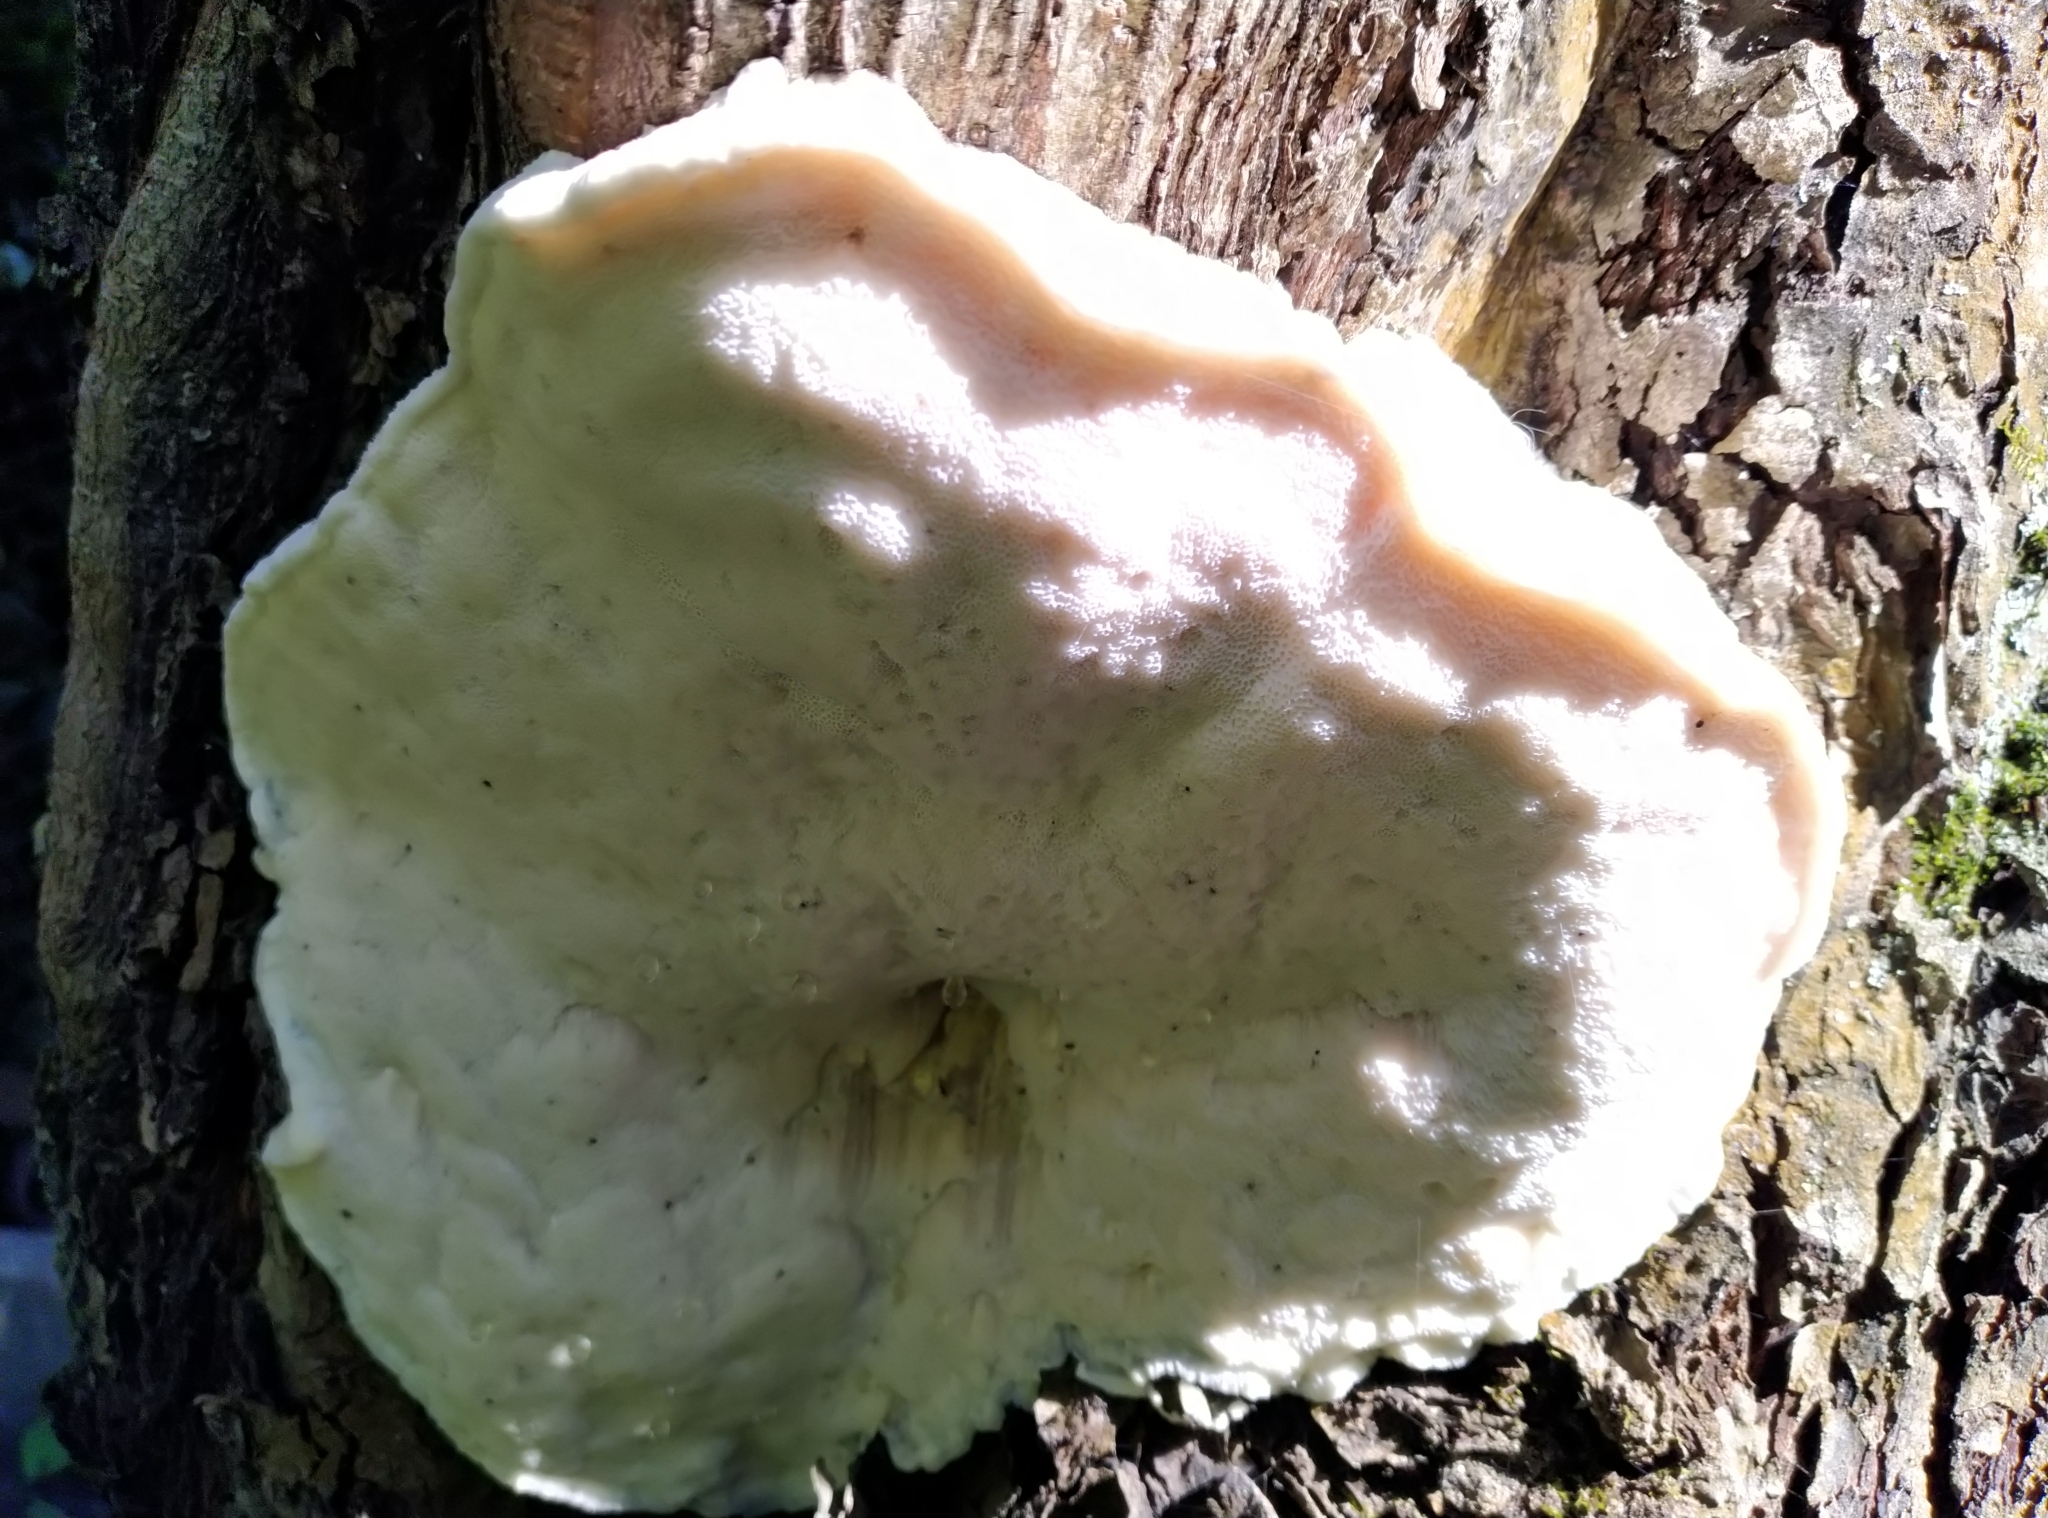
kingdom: Fungi
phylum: Basidiomycota
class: Agaricomycetes
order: Polyporales
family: Meruliaceae
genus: Pappia
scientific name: Pappia fissilis
